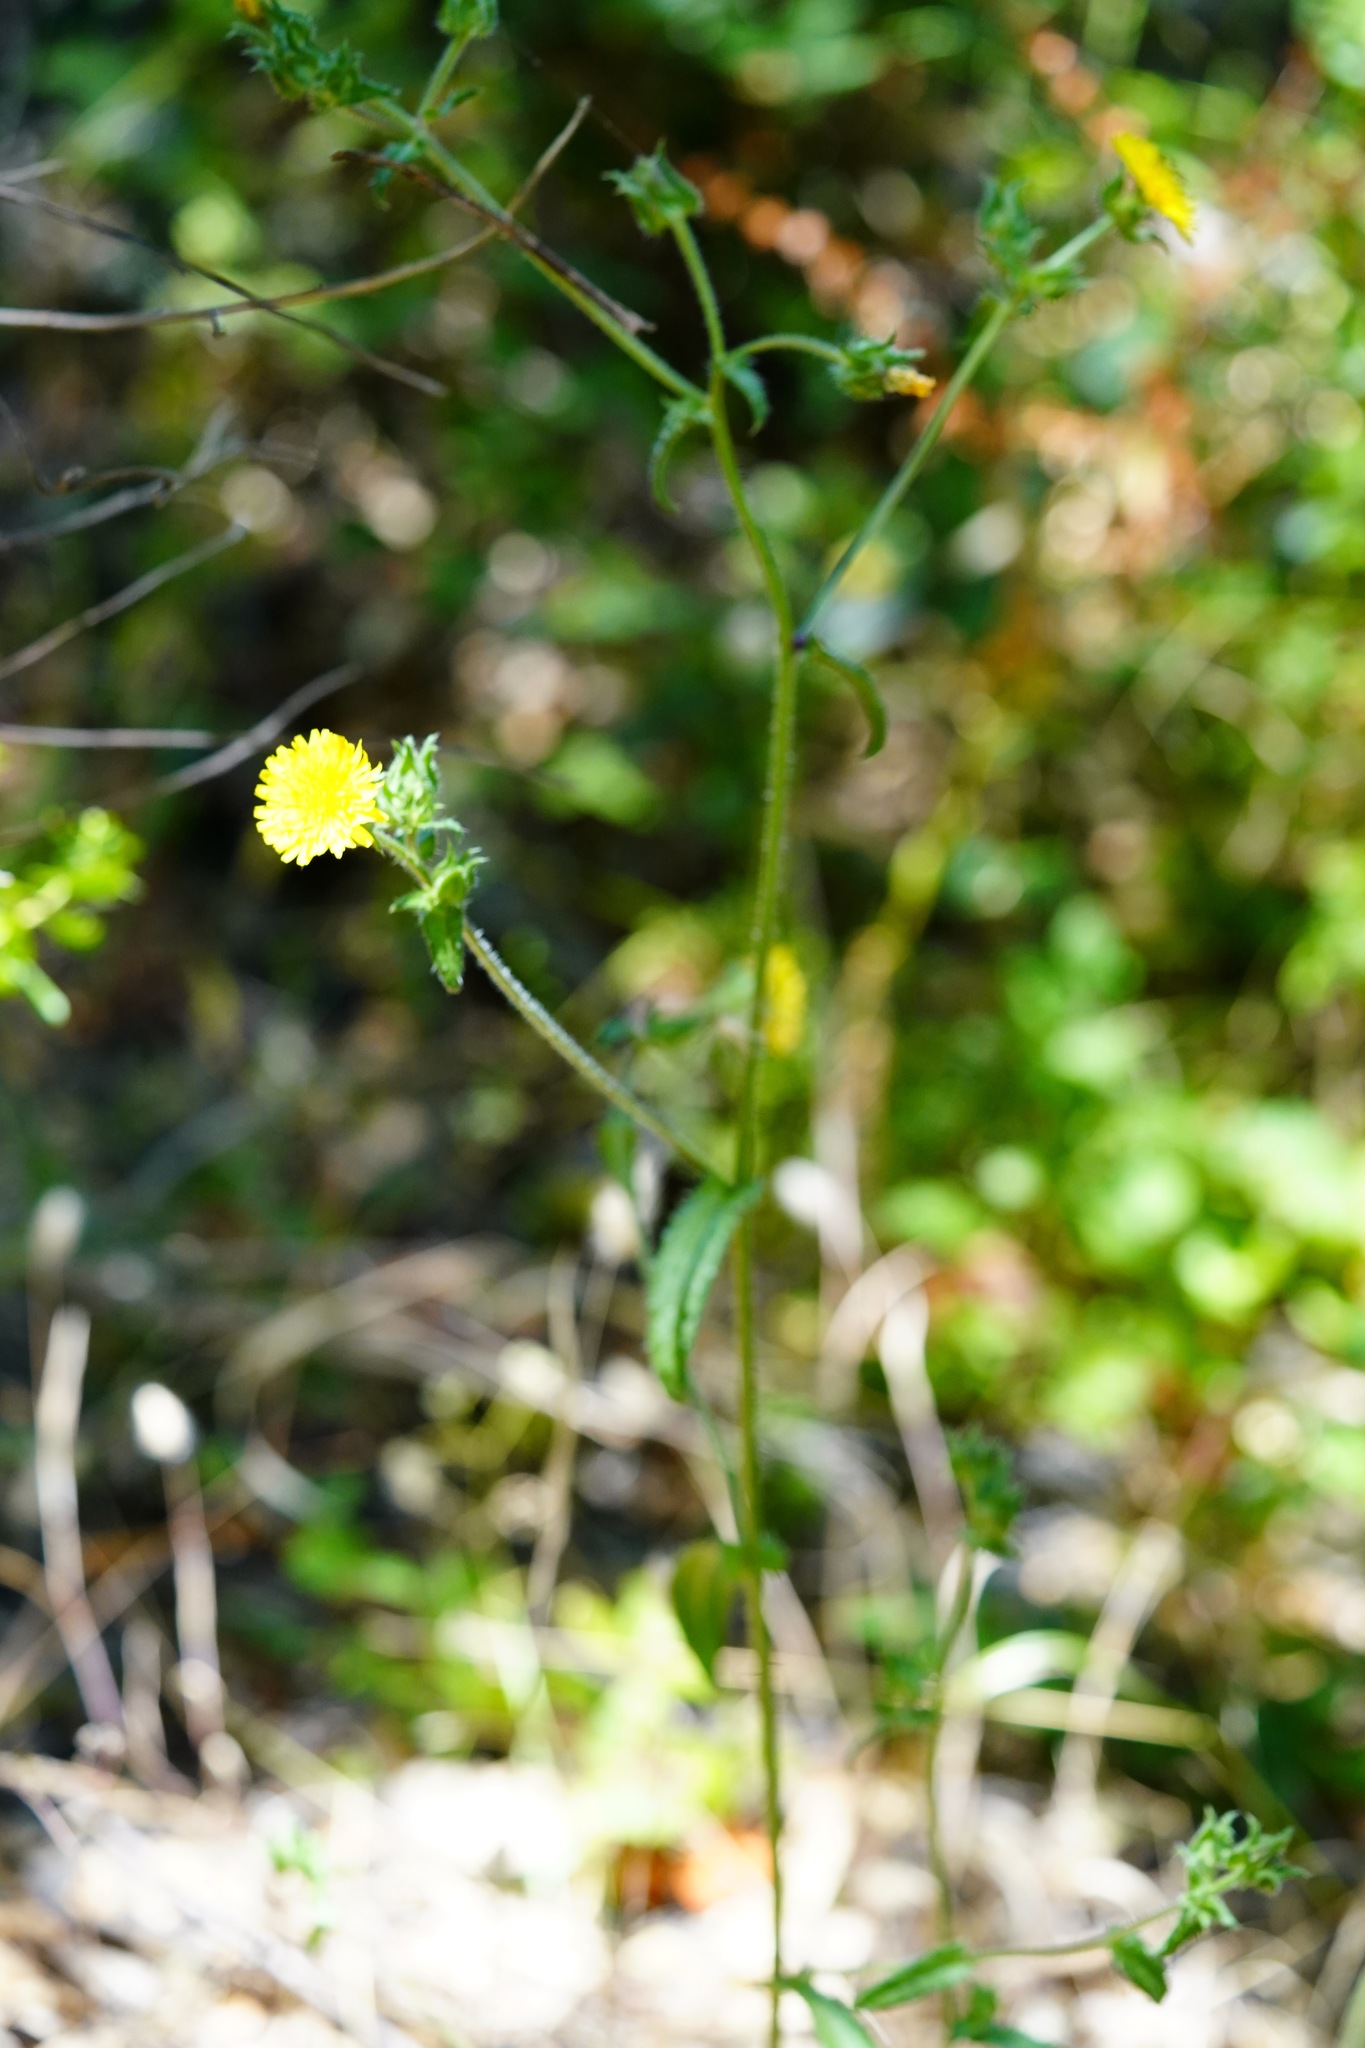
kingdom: Plantae
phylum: Tracheophyta
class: Magnoliopsida
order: Asterales
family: Asteraceae
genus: Helminthotheca
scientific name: Helminthotheca echioides
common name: Ox-tongue
